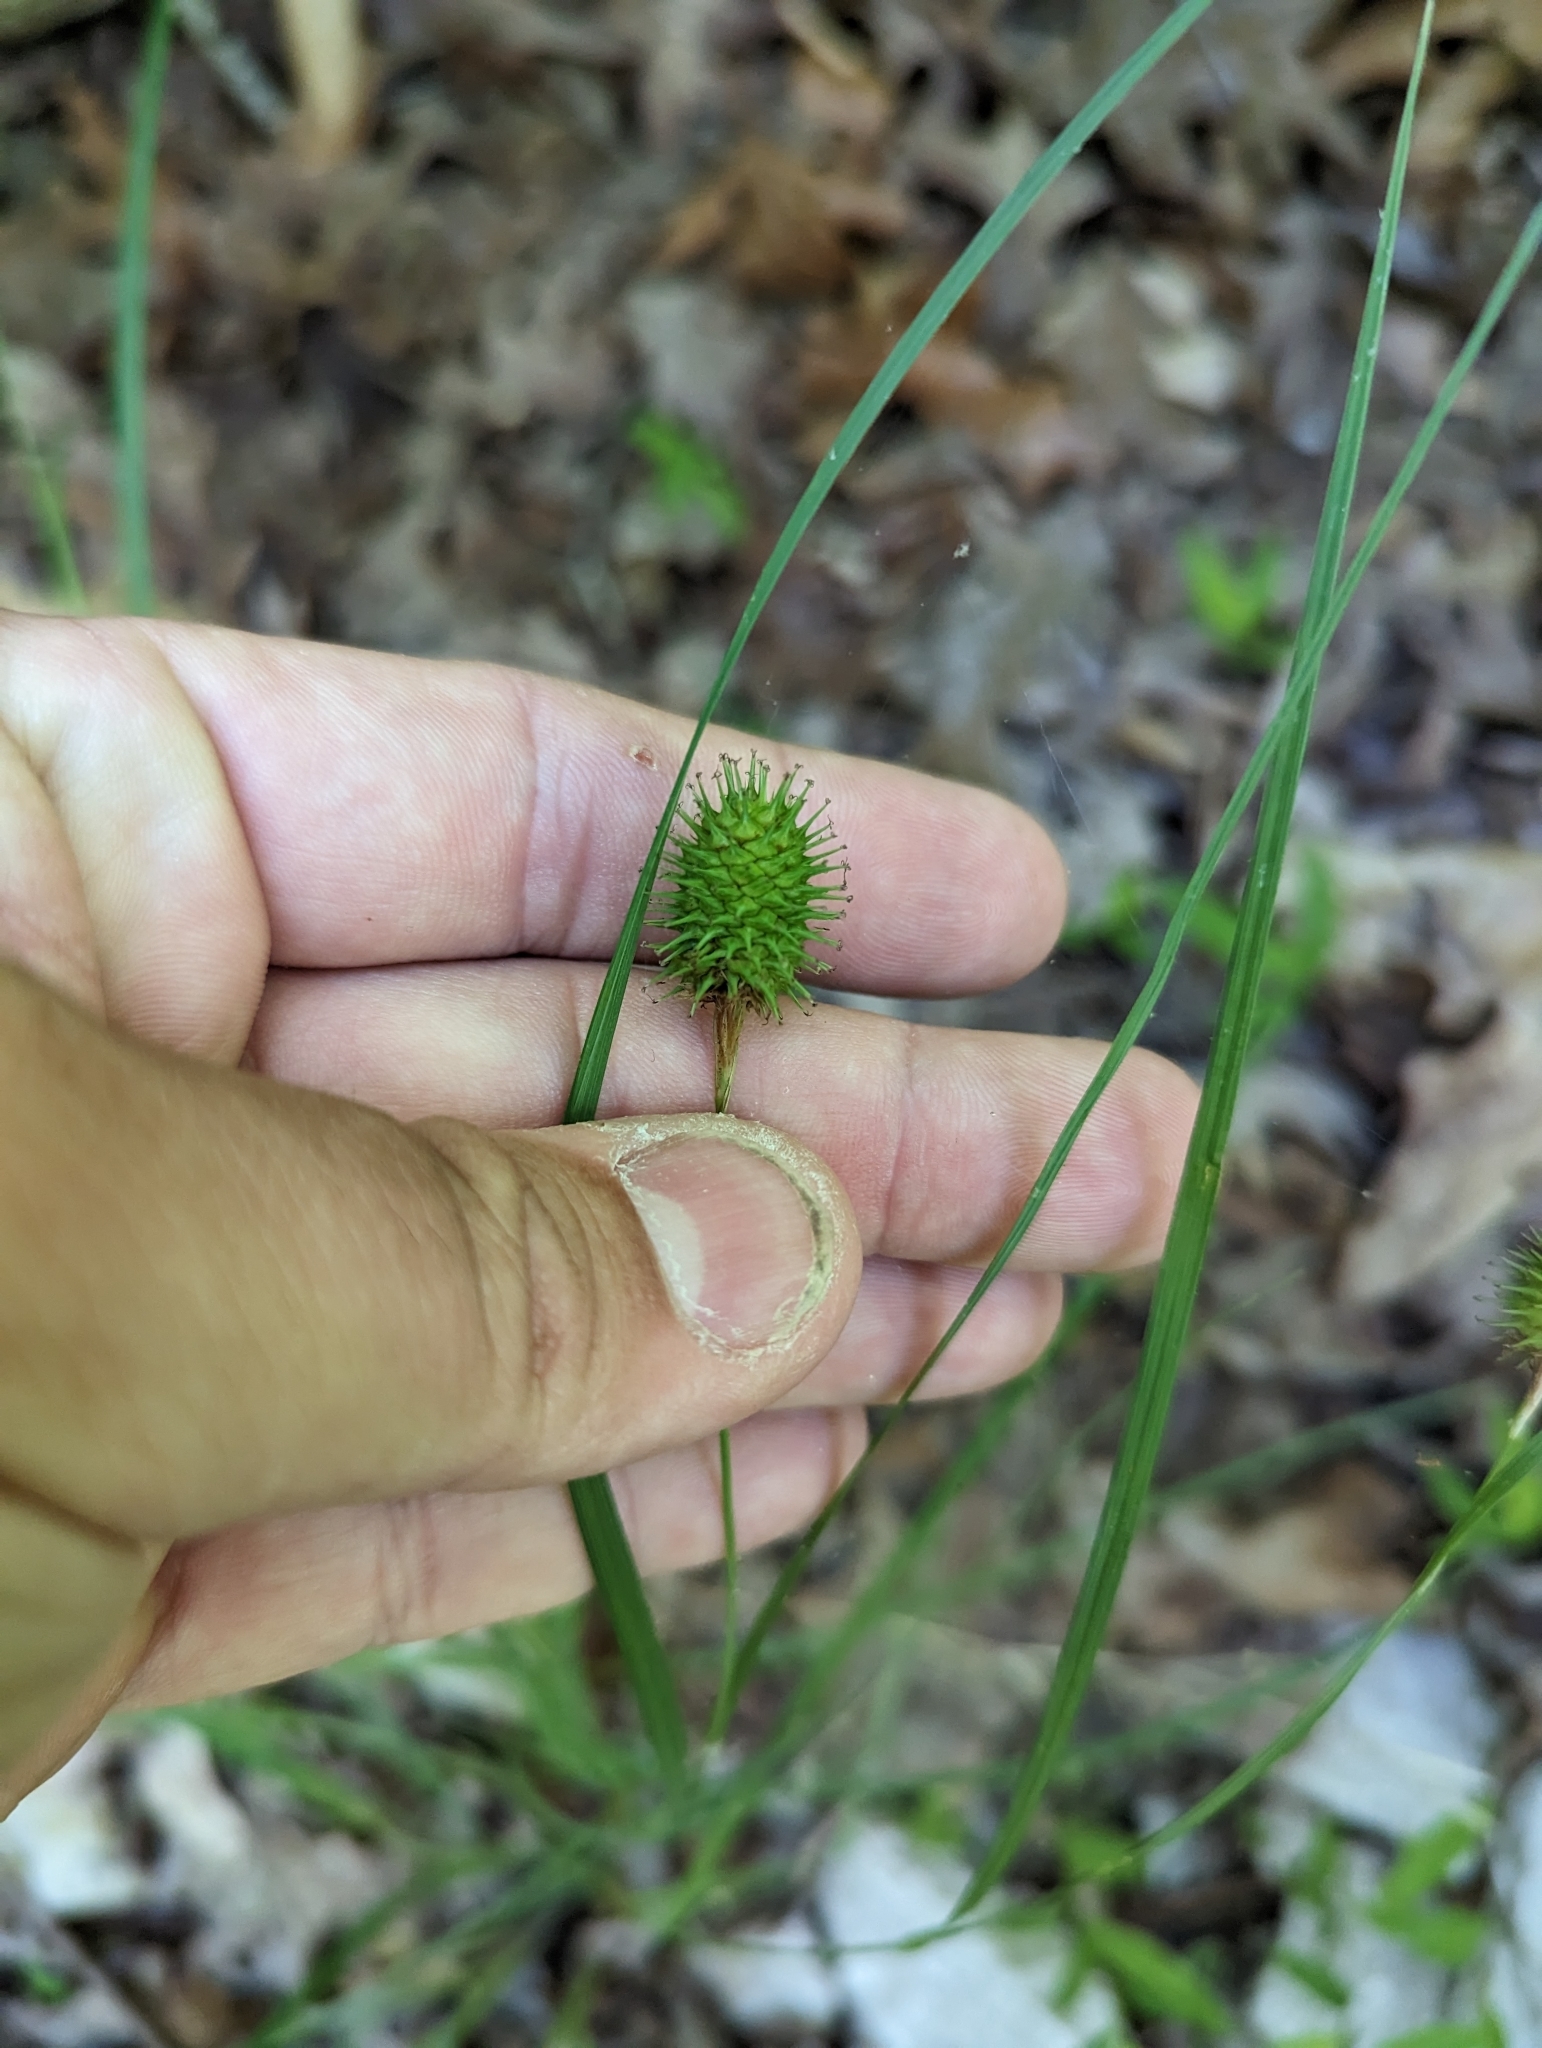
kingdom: Plantae
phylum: Tracheophyta
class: Liliopsida
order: Poales
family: Cyperaceae
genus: Carex
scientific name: Carex squarrosa
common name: Narrow-leaved cattail sedge
